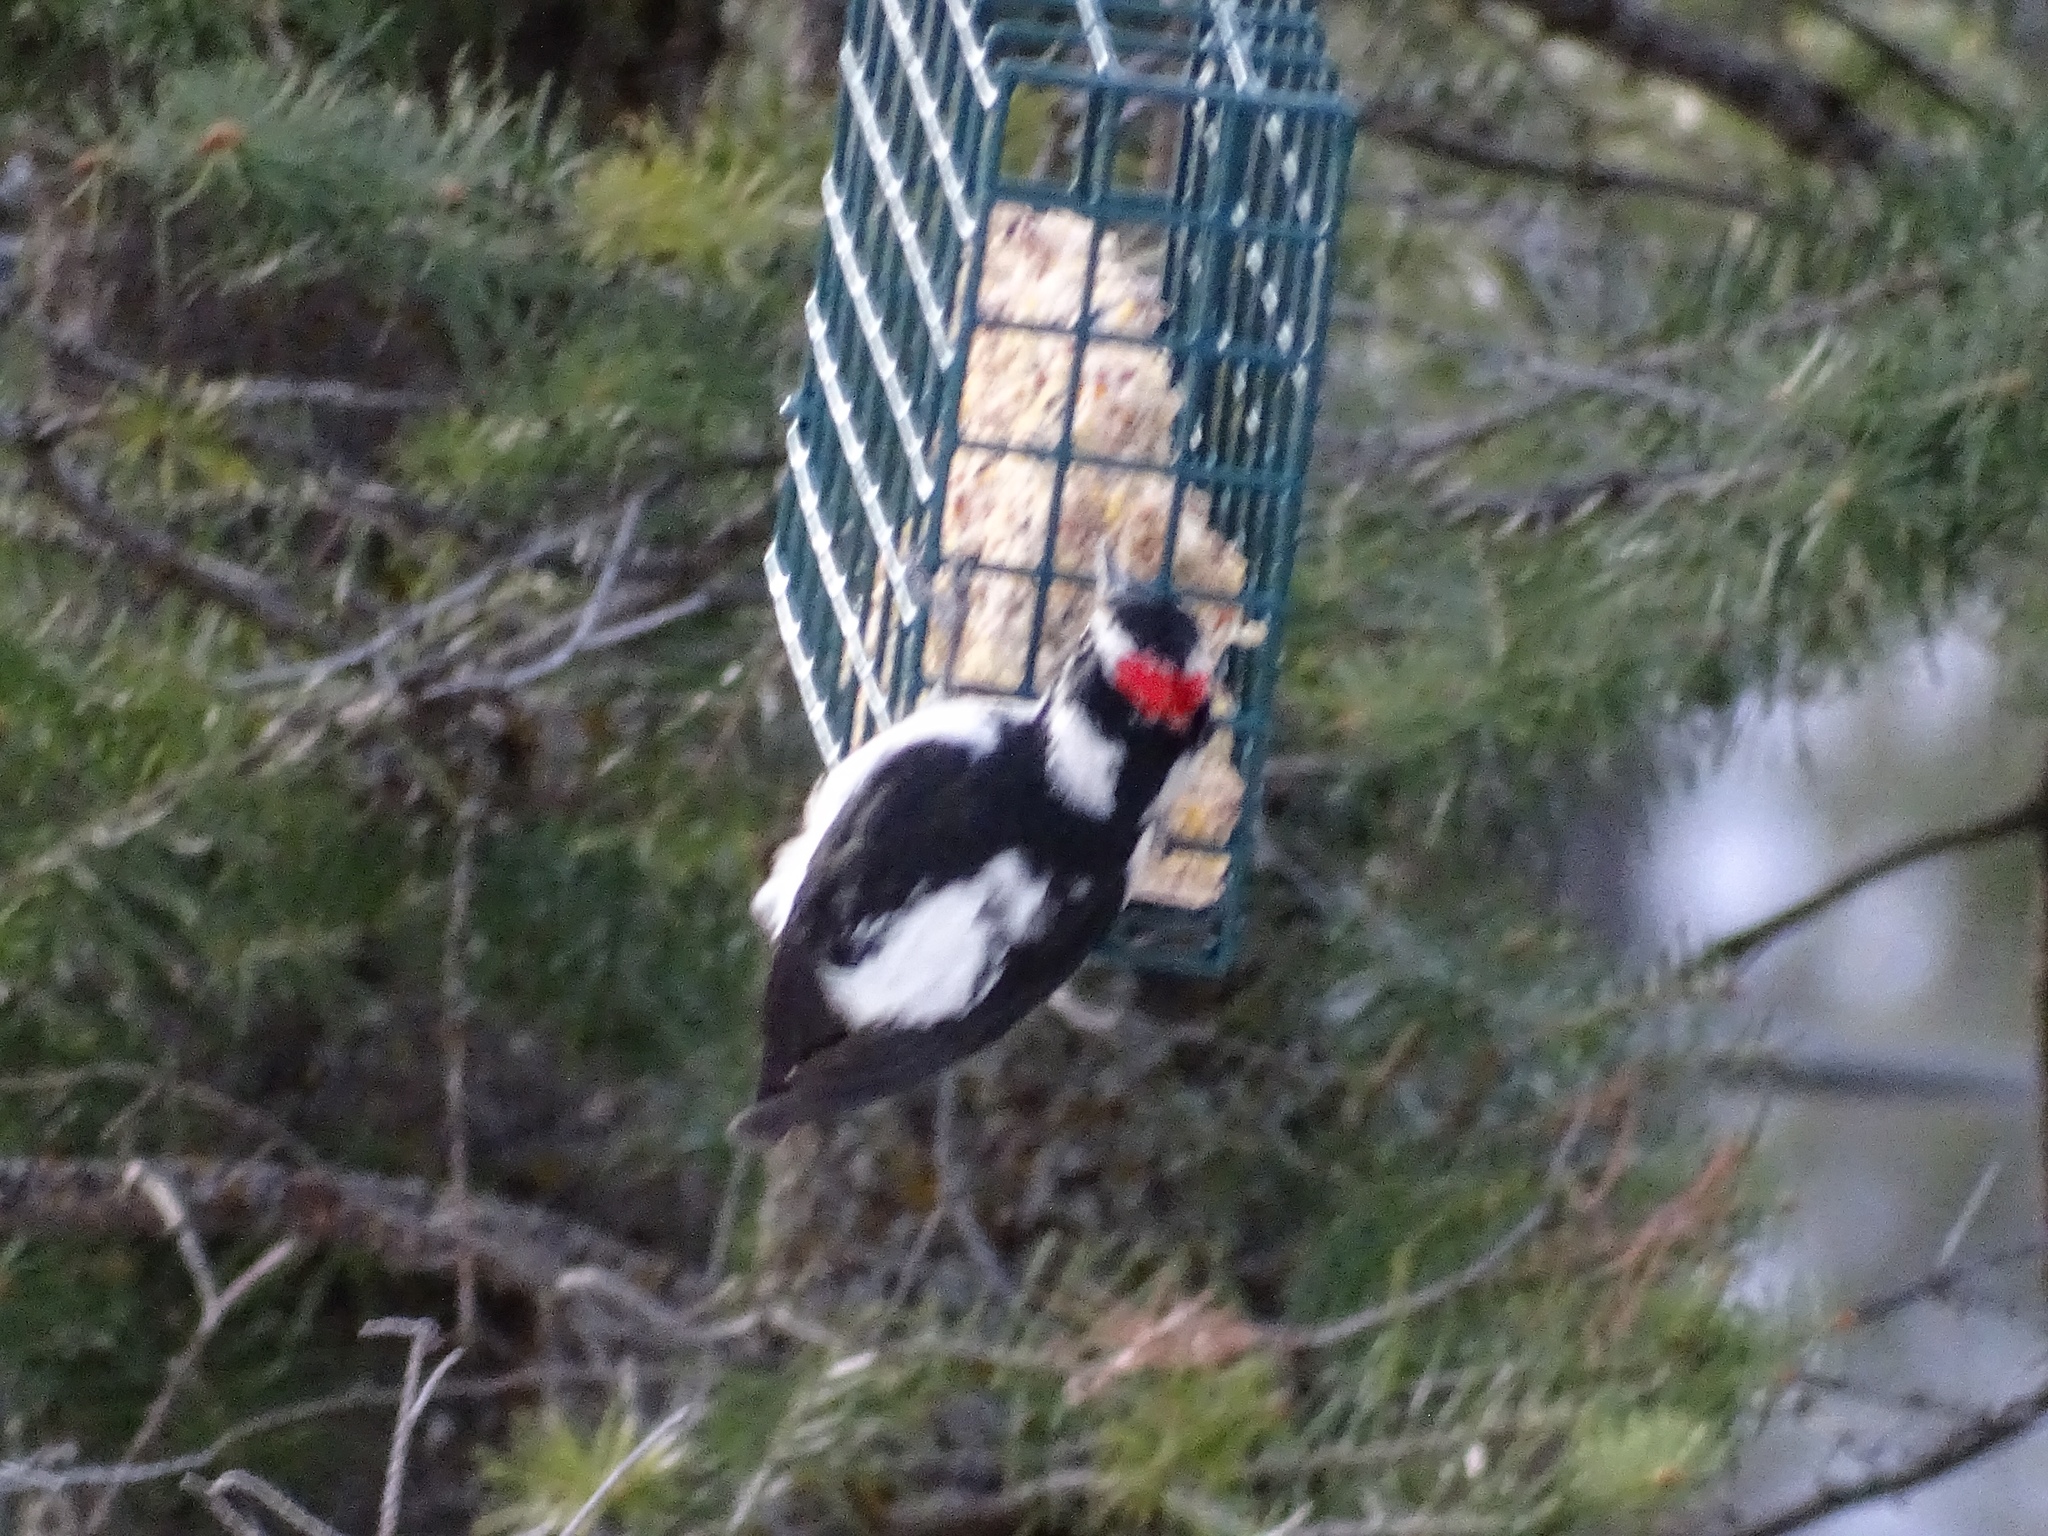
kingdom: Animalia
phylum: Chordata
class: Aves
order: Piciformes
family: Picidae
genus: Leuconotopicus
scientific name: Leuconotopicus villosus
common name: Hairy woodpecker
